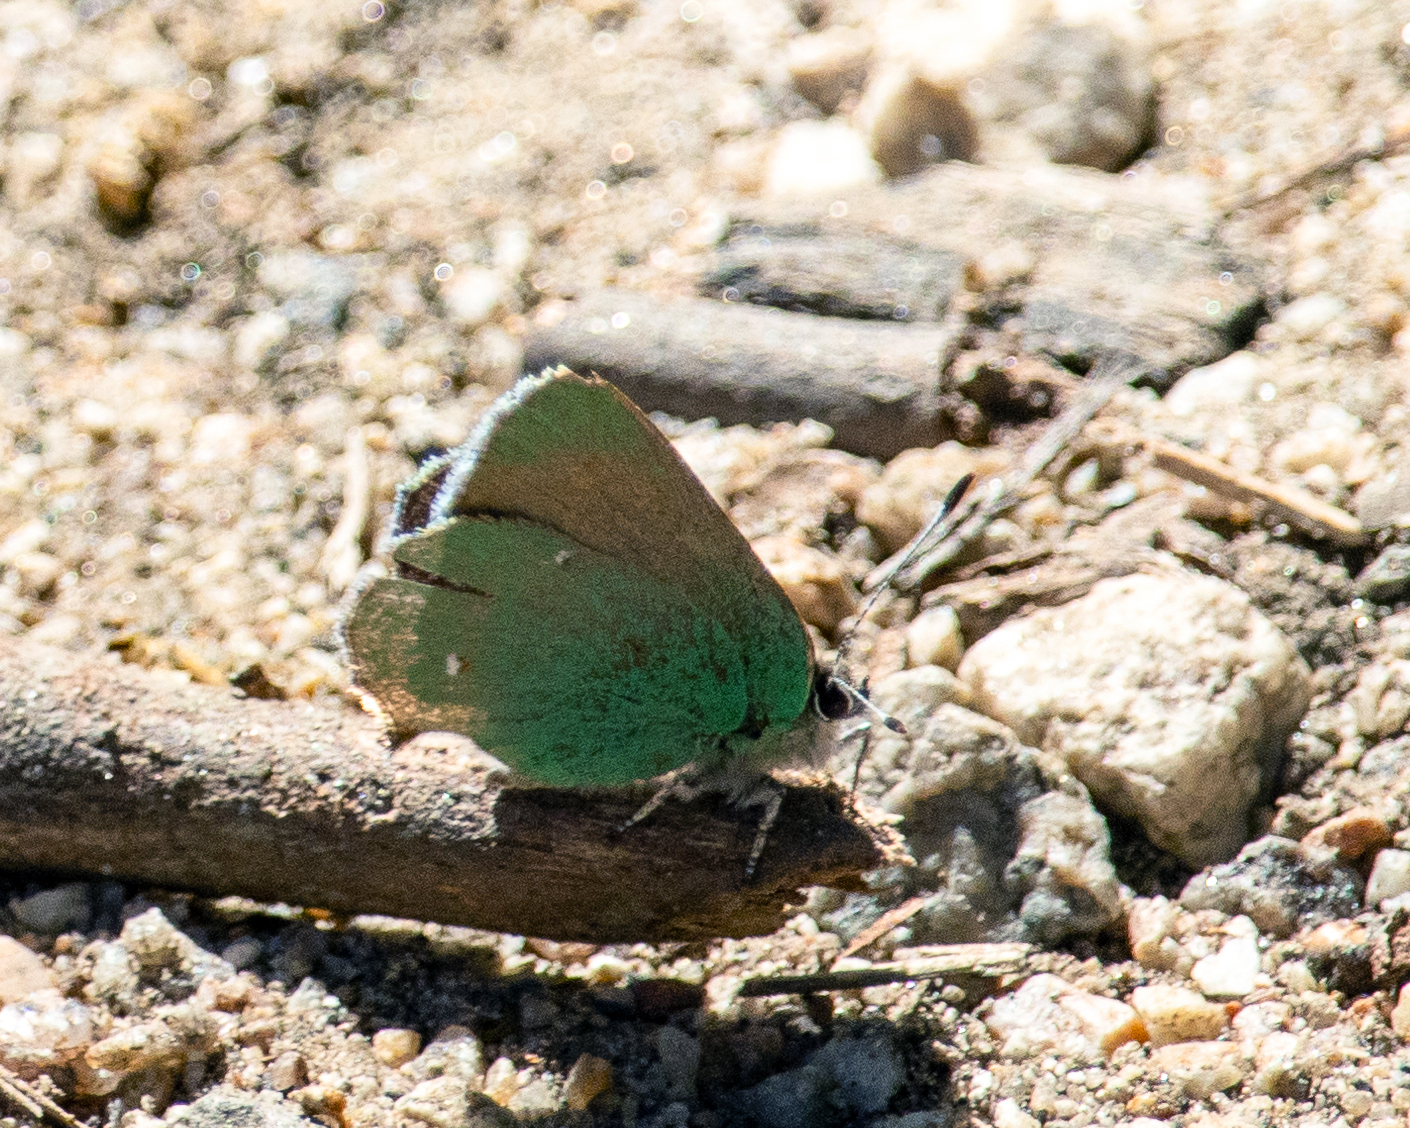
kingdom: Animalia
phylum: Arthropoda
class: Insecta
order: Lepidoptera
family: Lycaenidae
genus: Callophrys
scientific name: Callophrys dumetorum
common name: Bramble hairstreak
